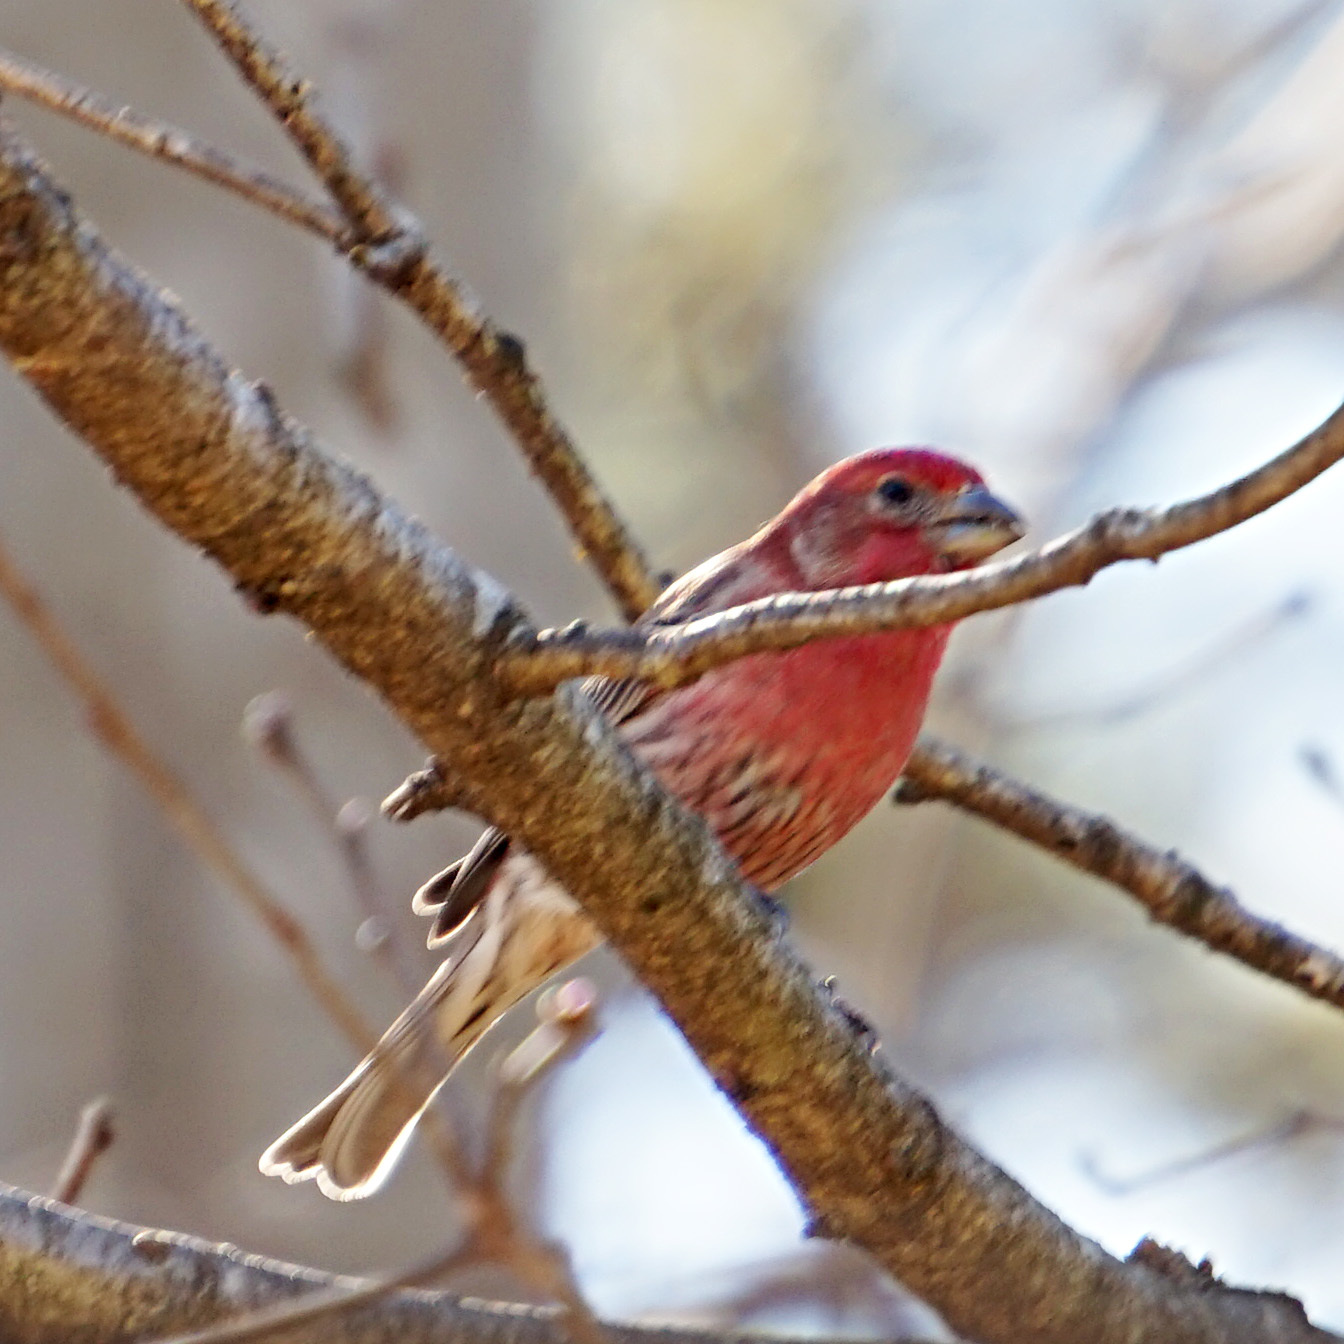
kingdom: Animalia
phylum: Chordata
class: Aves
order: Passeriformes
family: Fringillidae
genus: Haemorhous
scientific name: Haemorhous mexicanus
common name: House finch
